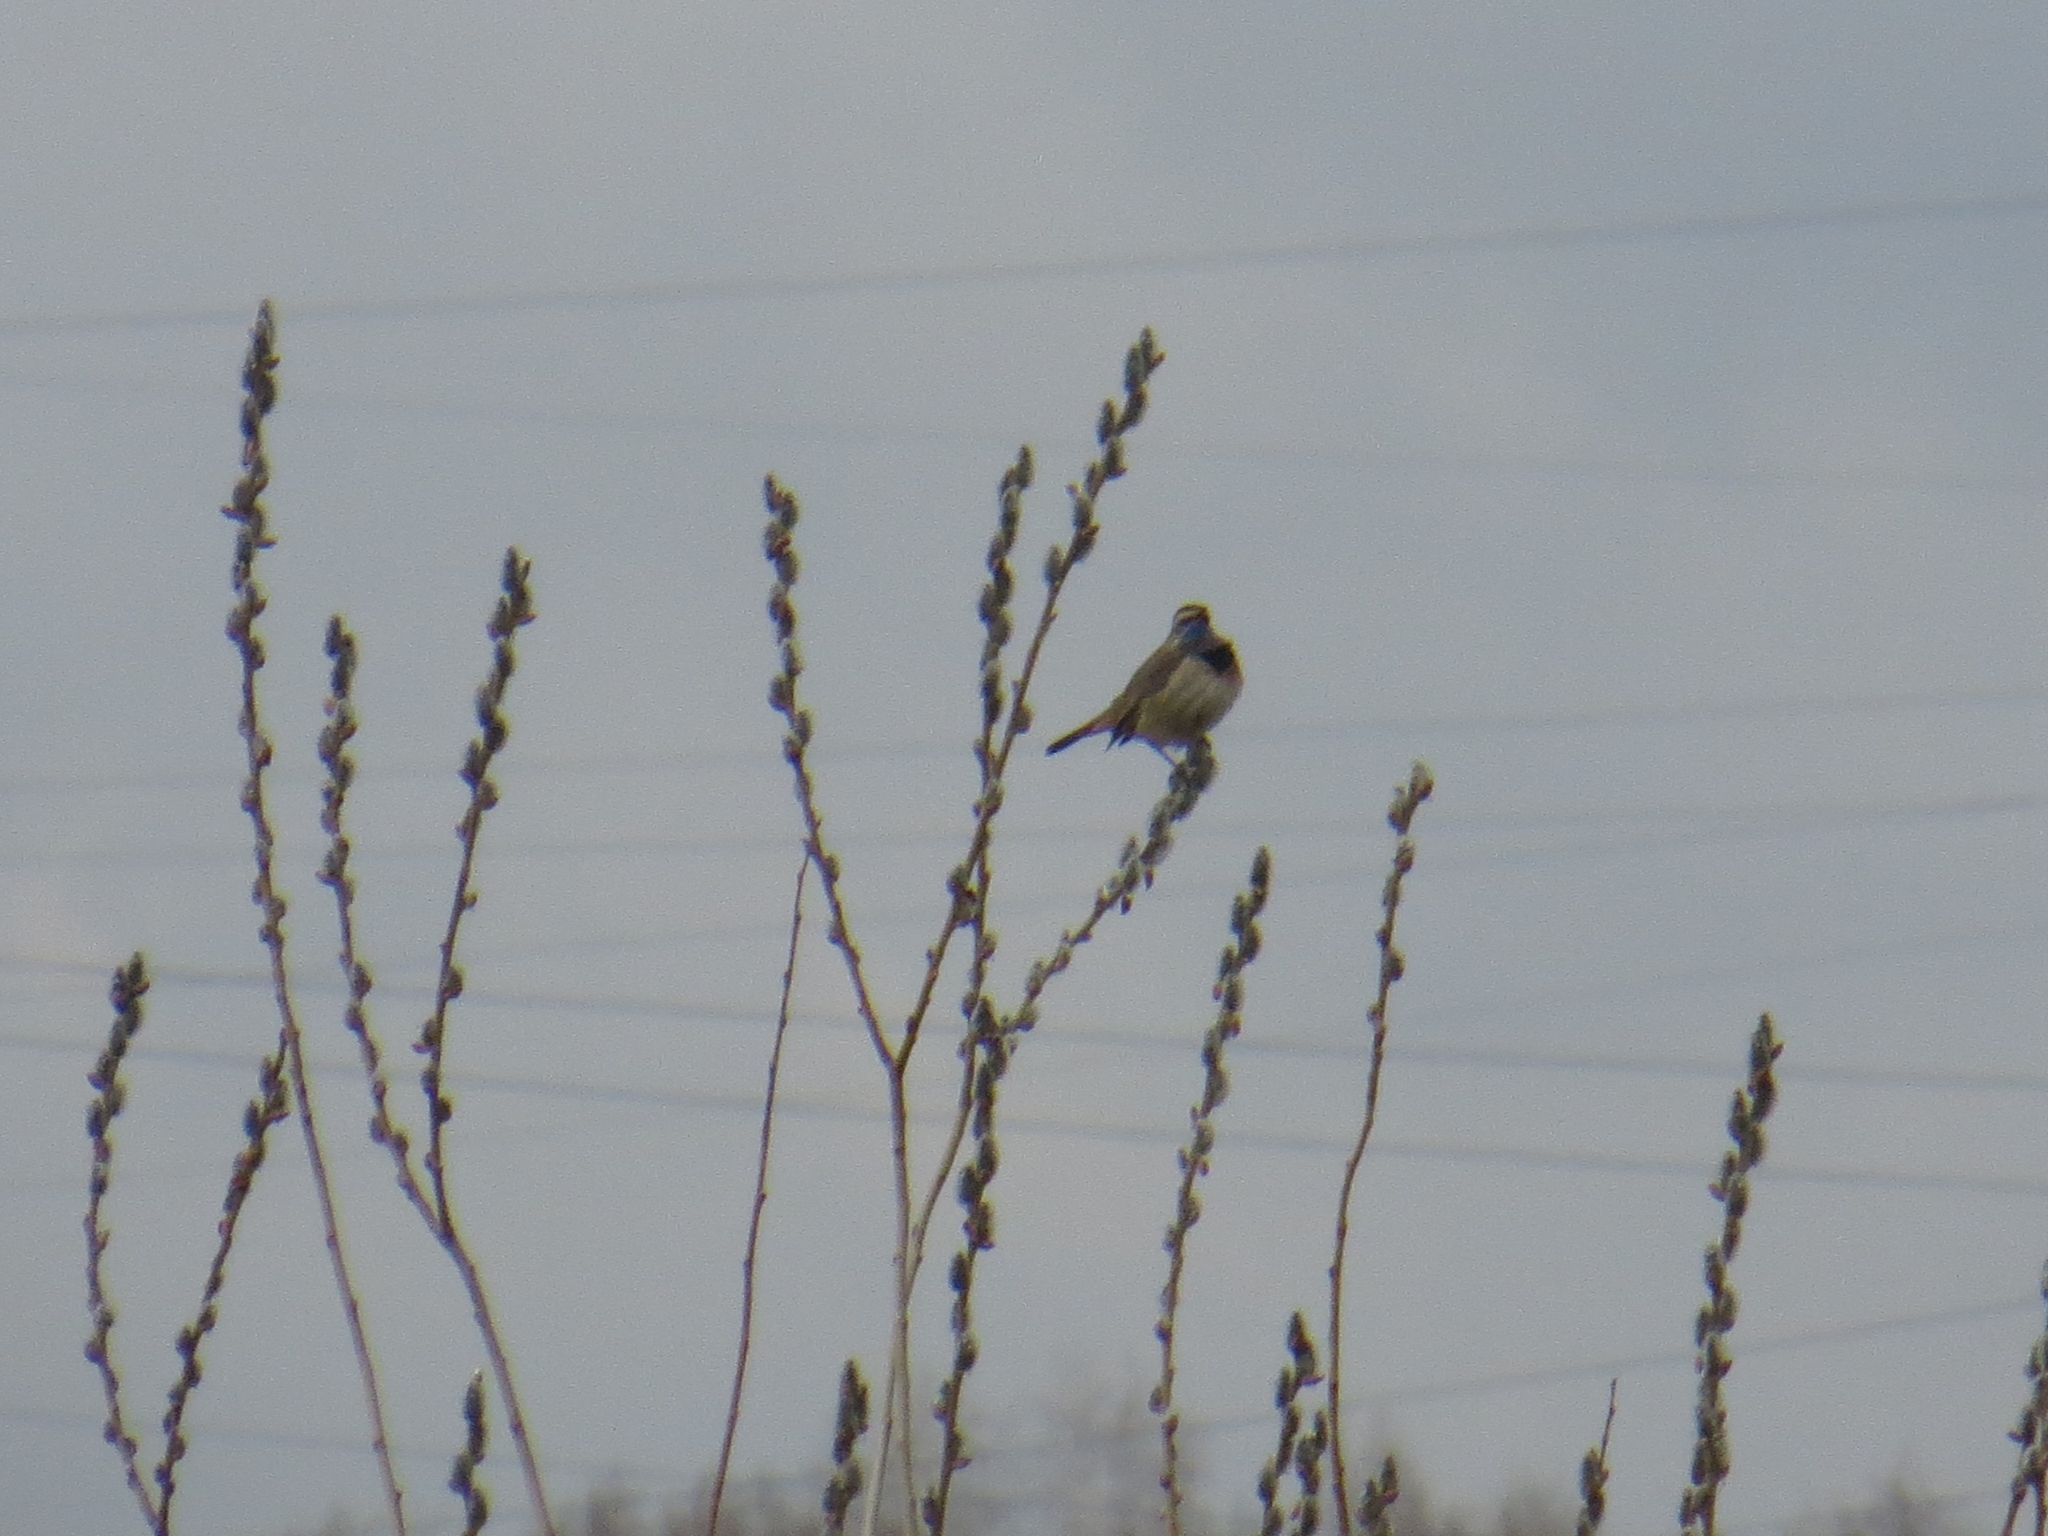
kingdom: Animalia
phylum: Chordata
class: Aves
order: Passeriformes
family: Muscicapidae
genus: Luscinia
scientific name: Luscinia svecica
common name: Bluethroat
